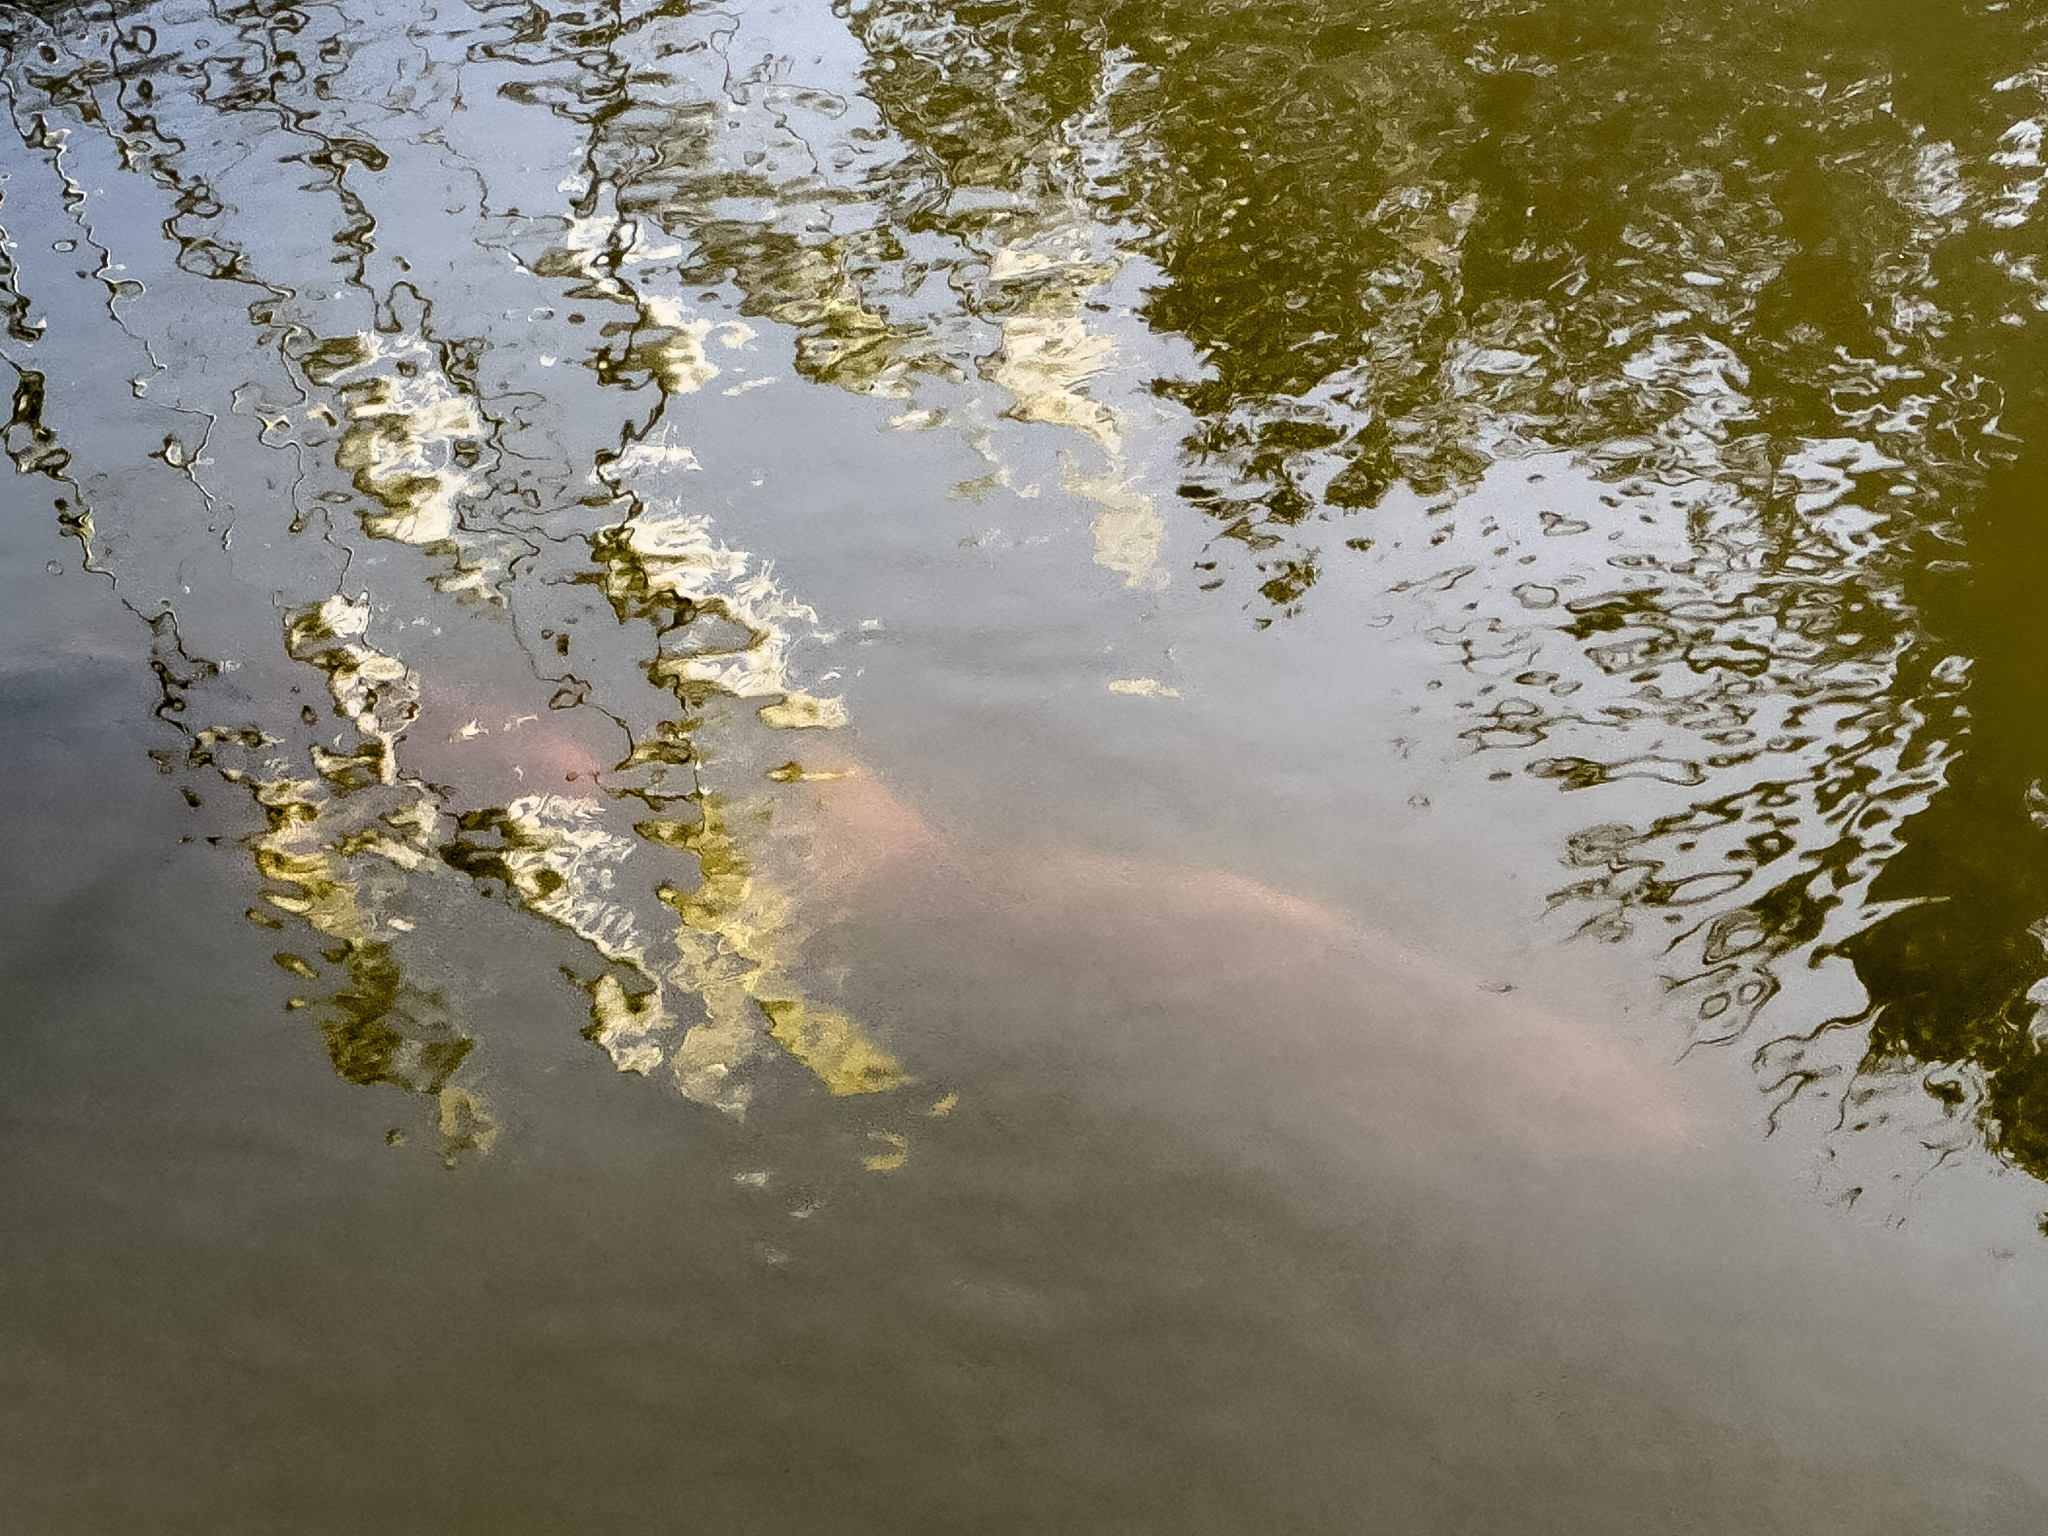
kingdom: Animalia
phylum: Chordata
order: Cypriniformes
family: Cyprinidae
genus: Cyprinus
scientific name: Cyprinus rubrofuscus
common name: Koi
